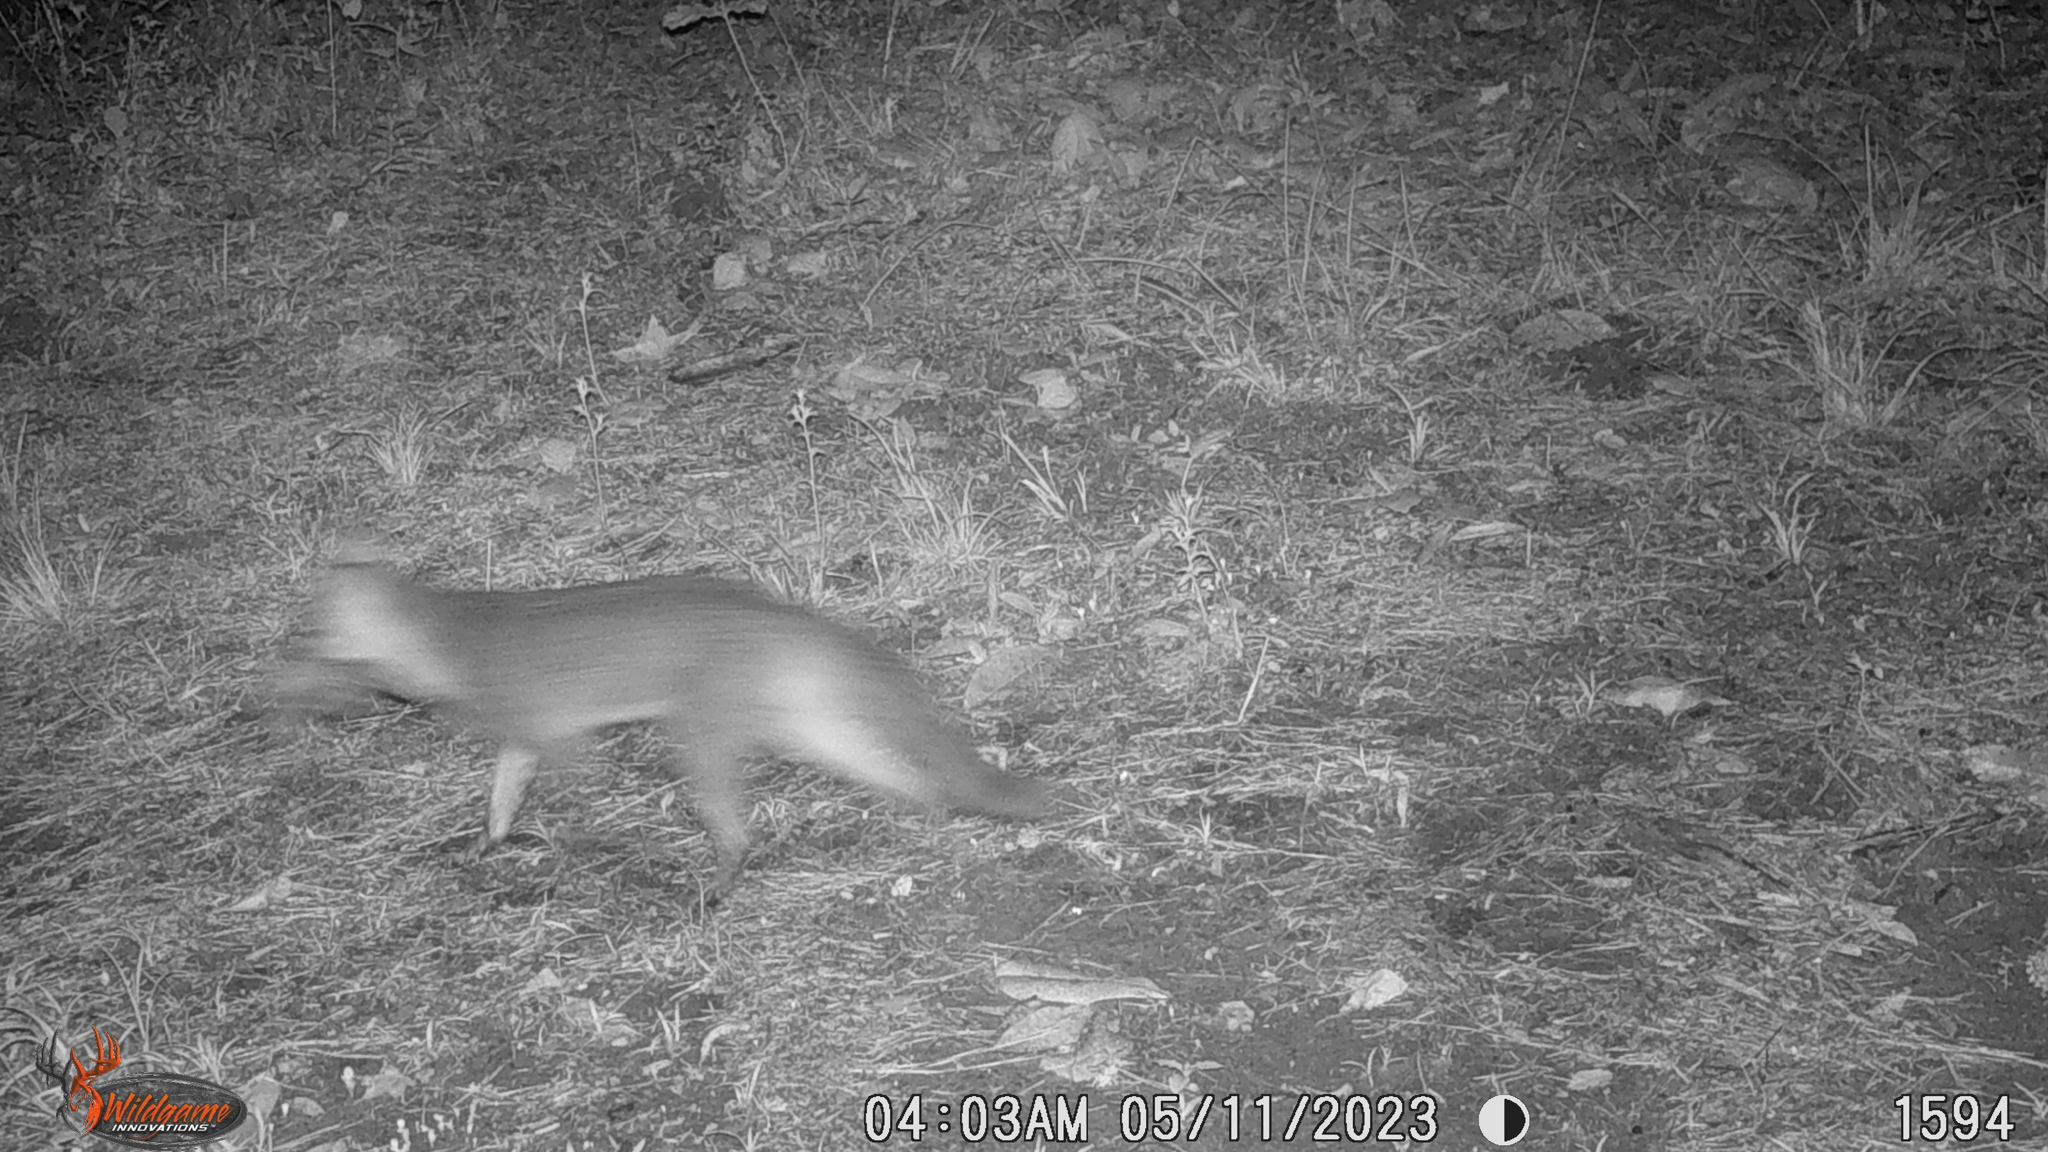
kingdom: Animalia
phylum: Chordata
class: Mammalia
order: Carnivora
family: Canidae
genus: Urocyon
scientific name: Urocyon cinereoargenteus
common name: Gray fox
